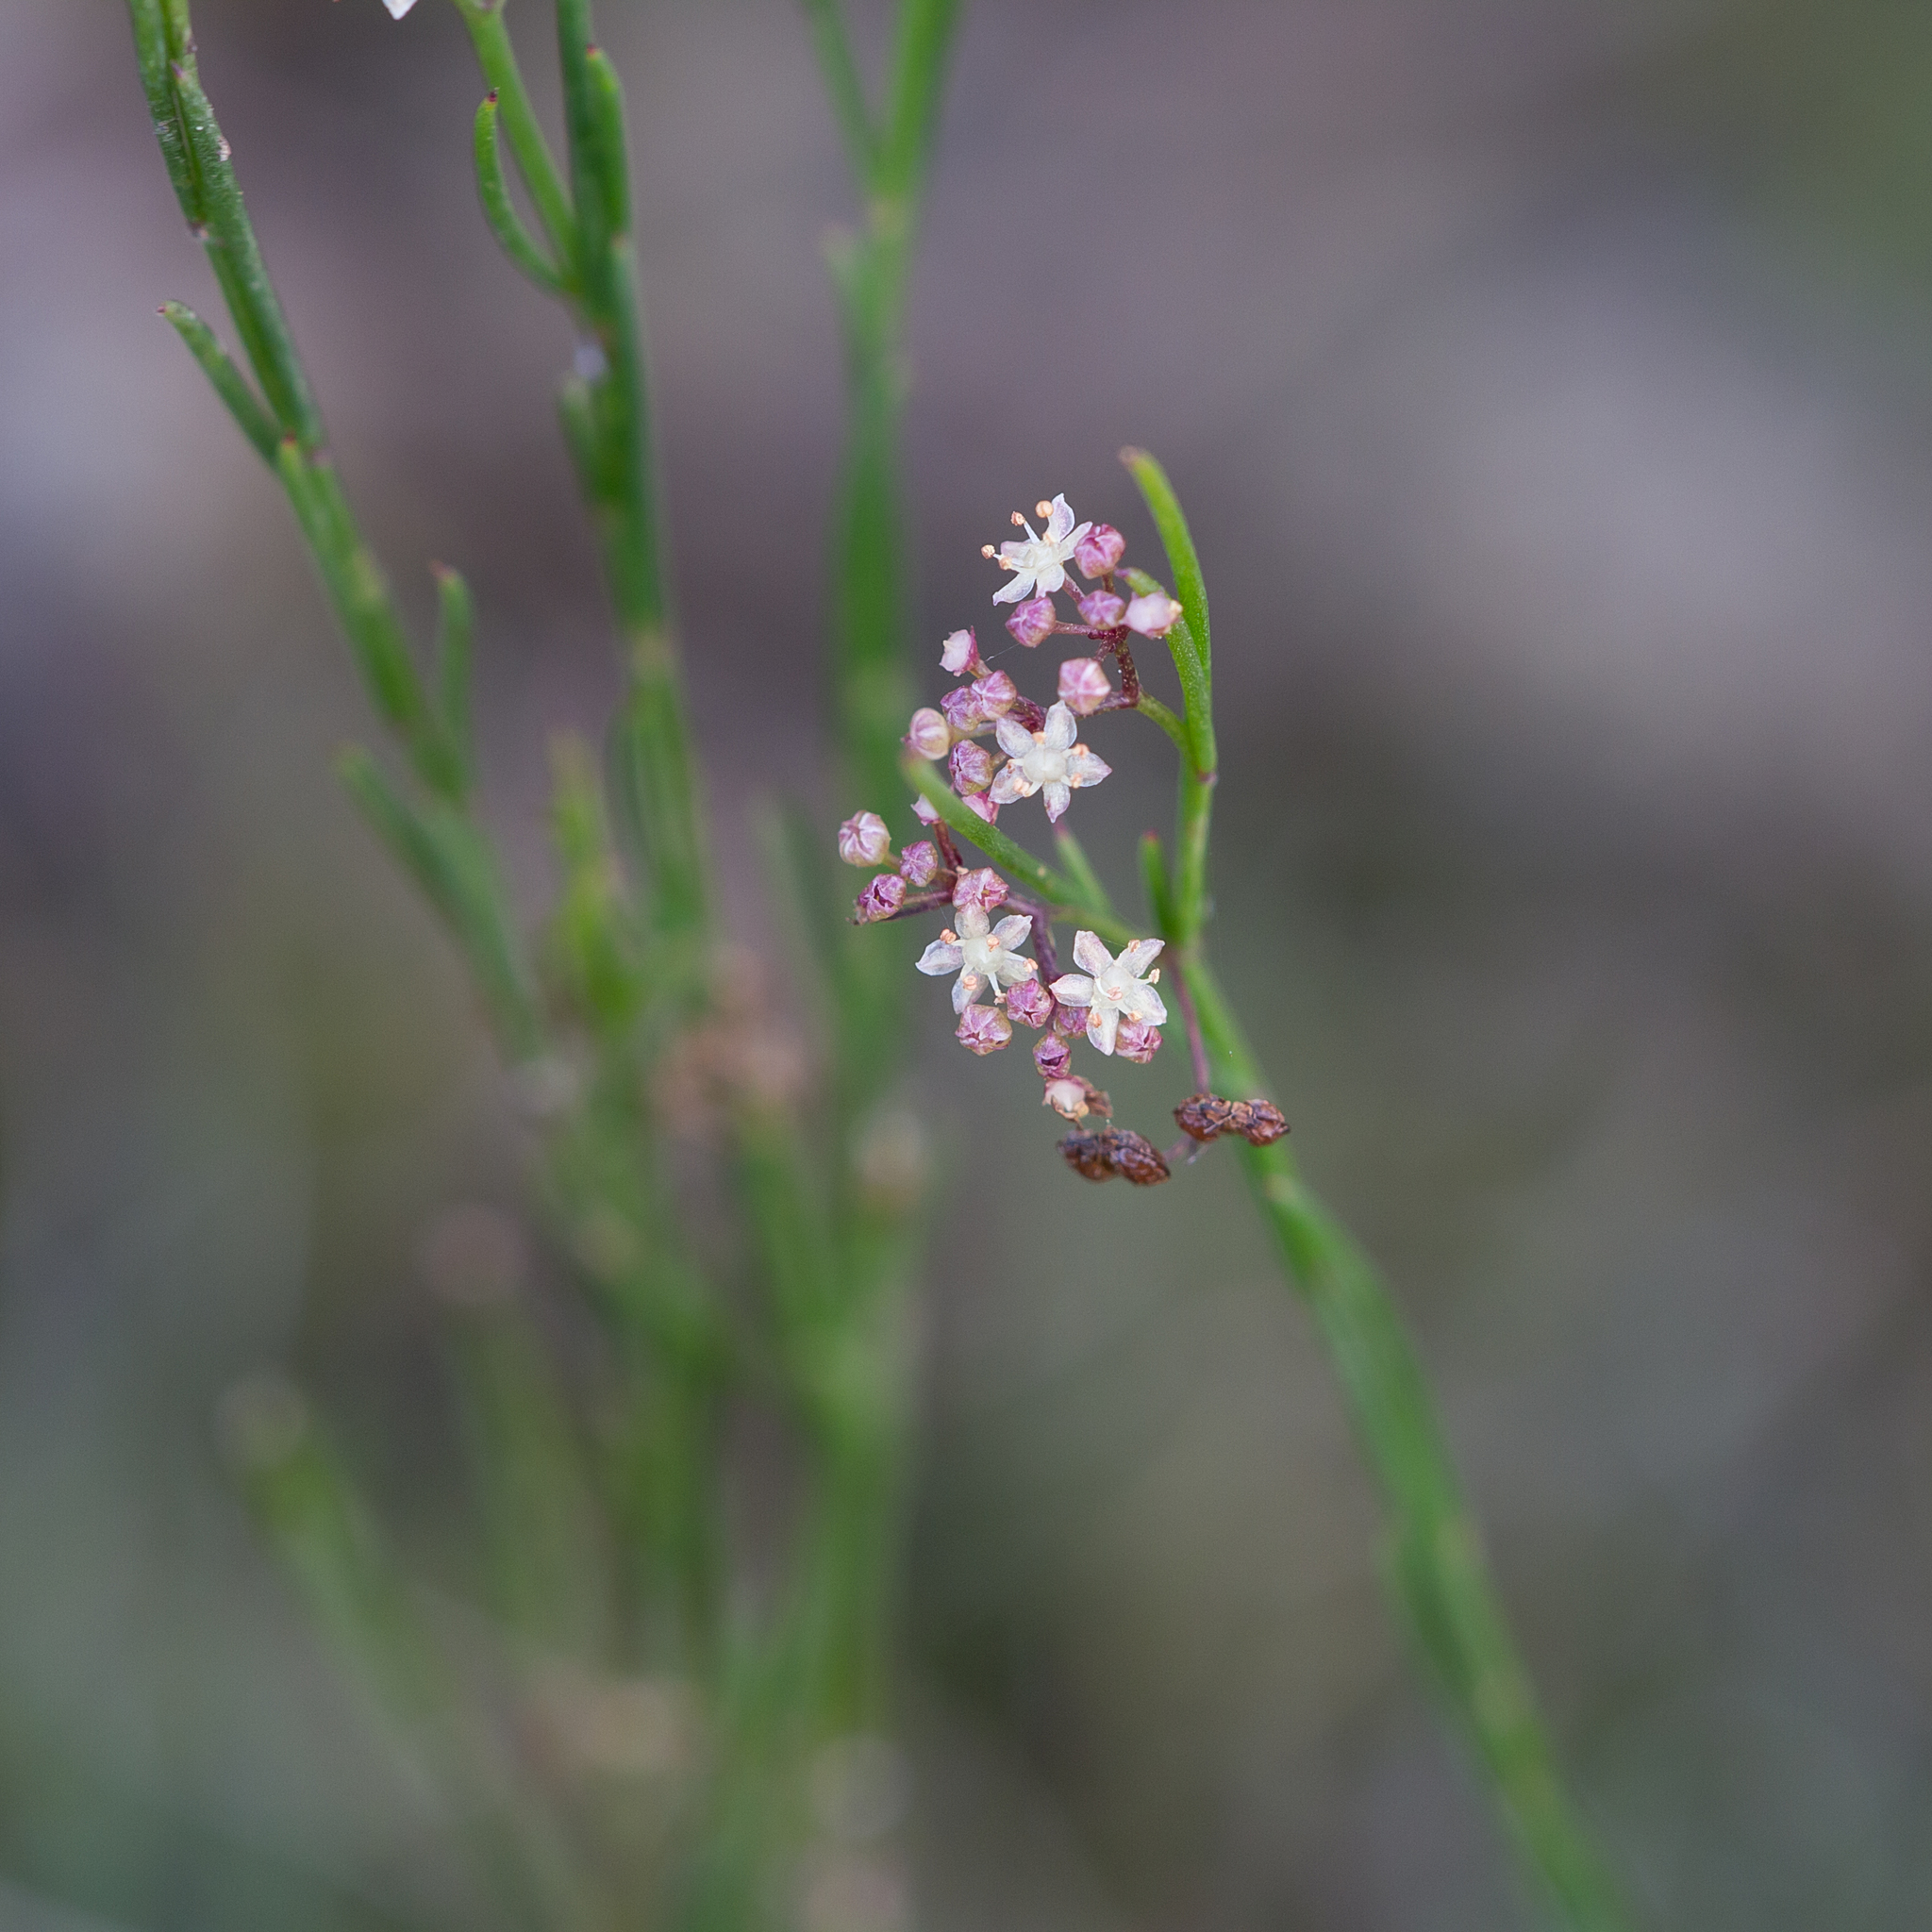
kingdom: Plantae
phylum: Tracheophyta
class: Magnoliopsida
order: Apiales
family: Apiaceae
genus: Platysace
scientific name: Platysace heterophylla
